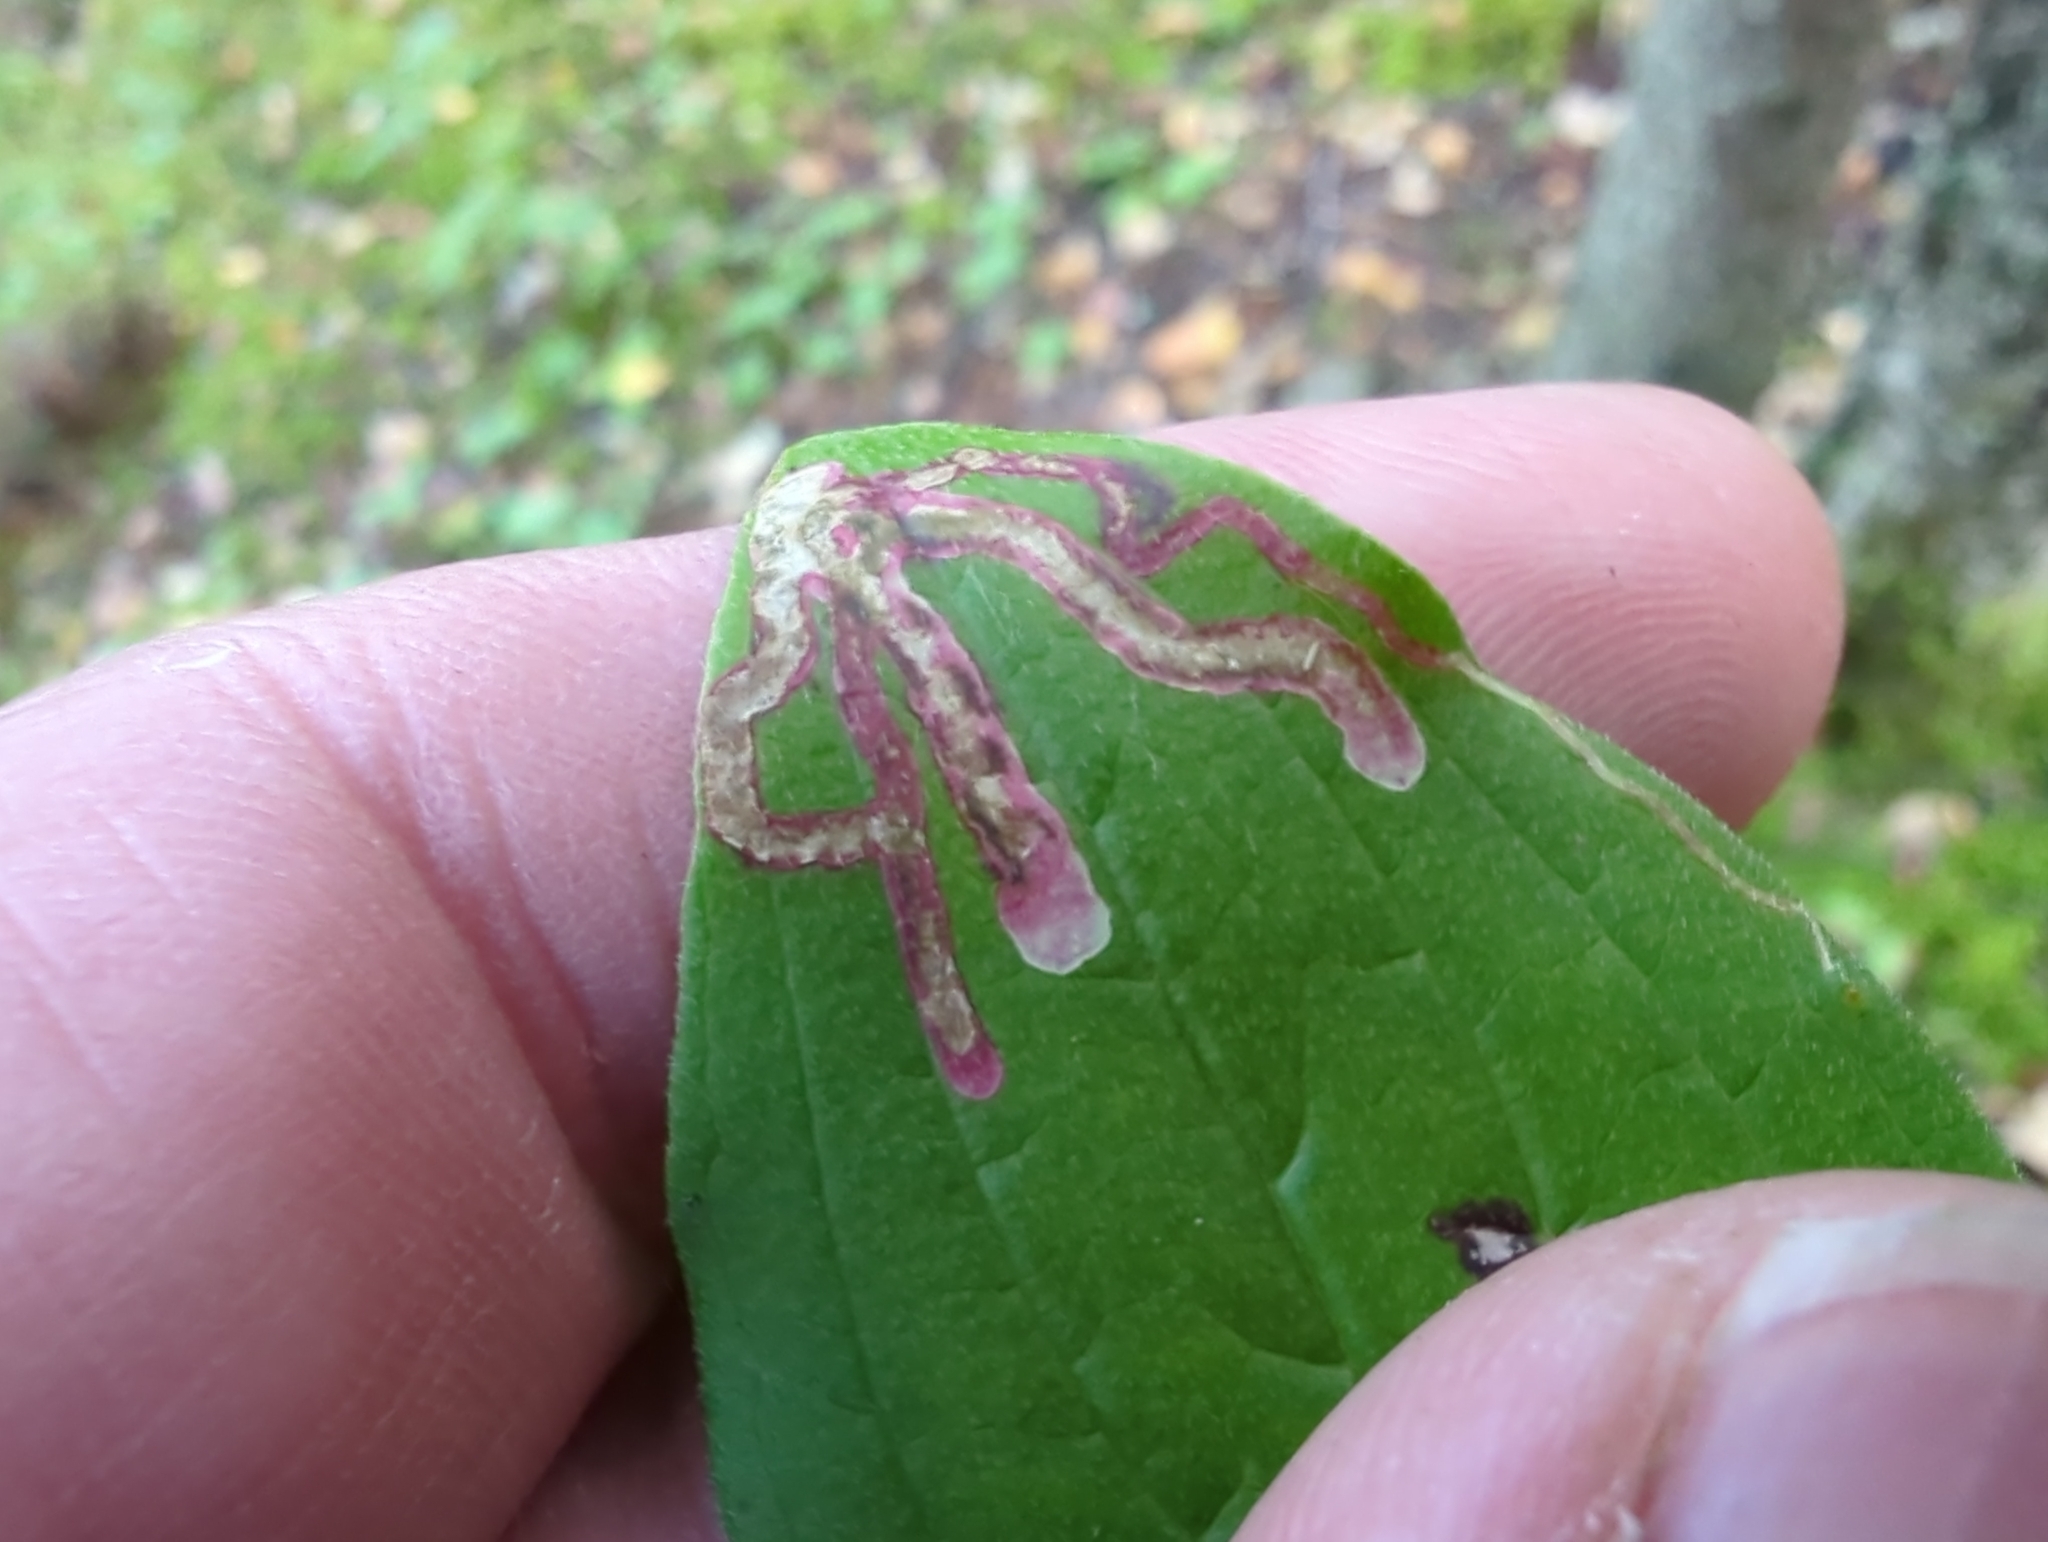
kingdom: Animalia
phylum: Arthropoda
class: Insecta
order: Diptera
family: Agromyzidae
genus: Phytomyza
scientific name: Phytomyza agromyzina
